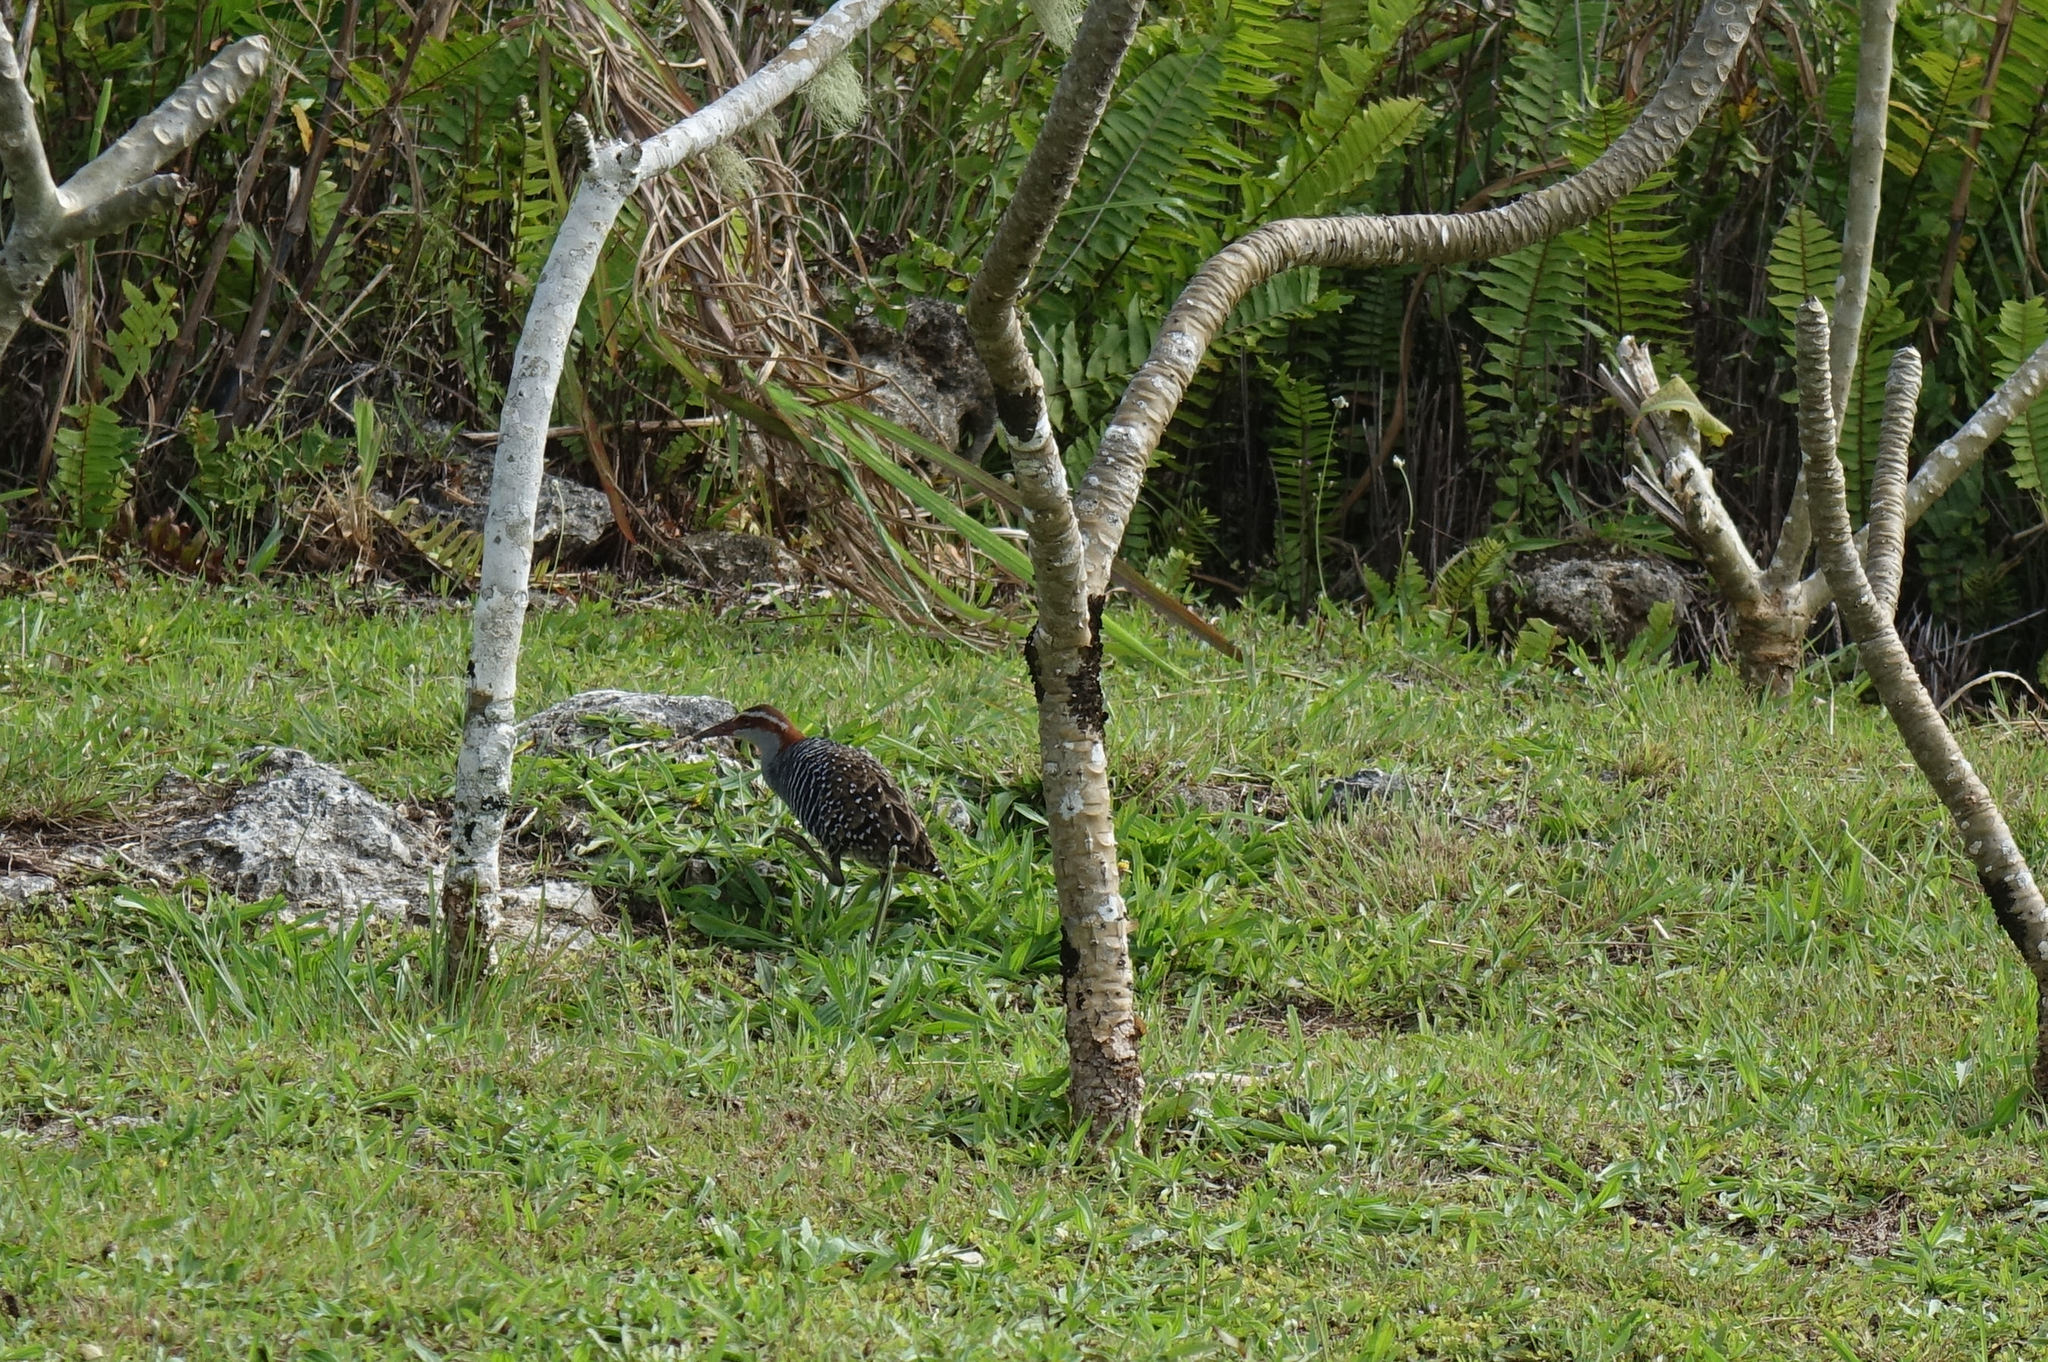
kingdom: Animalia
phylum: Chordata
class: Aves
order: Gruiformes
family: Rallidae
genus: Gallirallus
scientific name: Gallirallus philippensis
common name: Buff-banded rail
